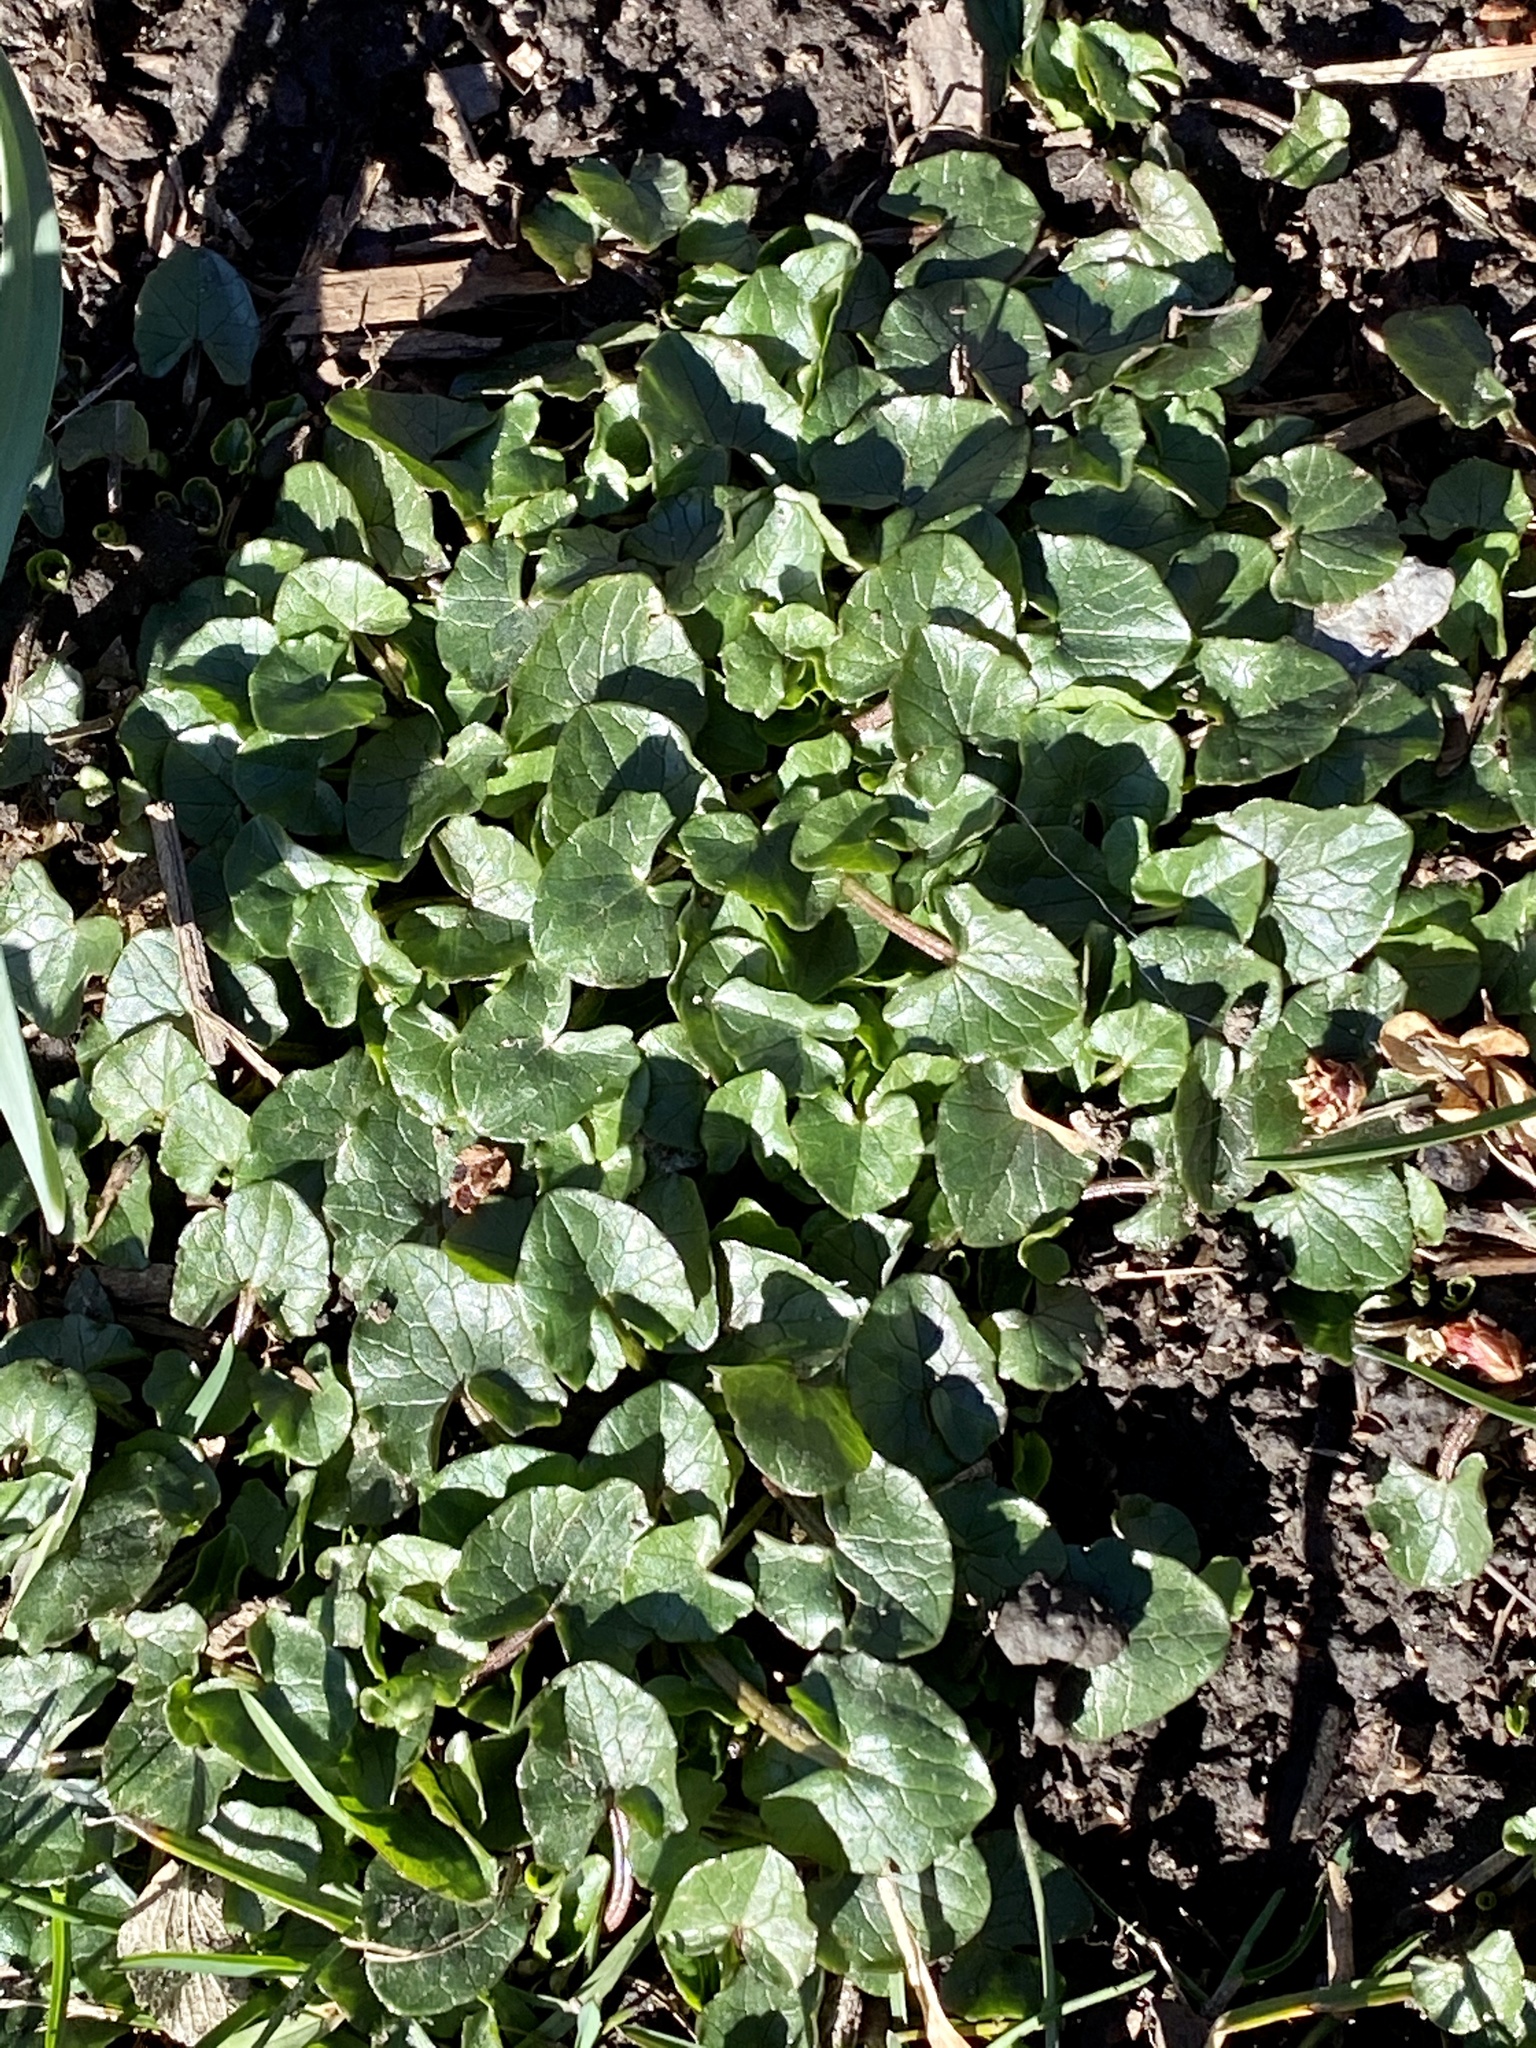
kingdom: Plantae
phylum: Tracheophyta
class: Magnoliopsida
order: Ranunculales
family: Ranunculaceae
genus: Ficaria
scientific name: Ficaria verna
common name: Lesser celandine
